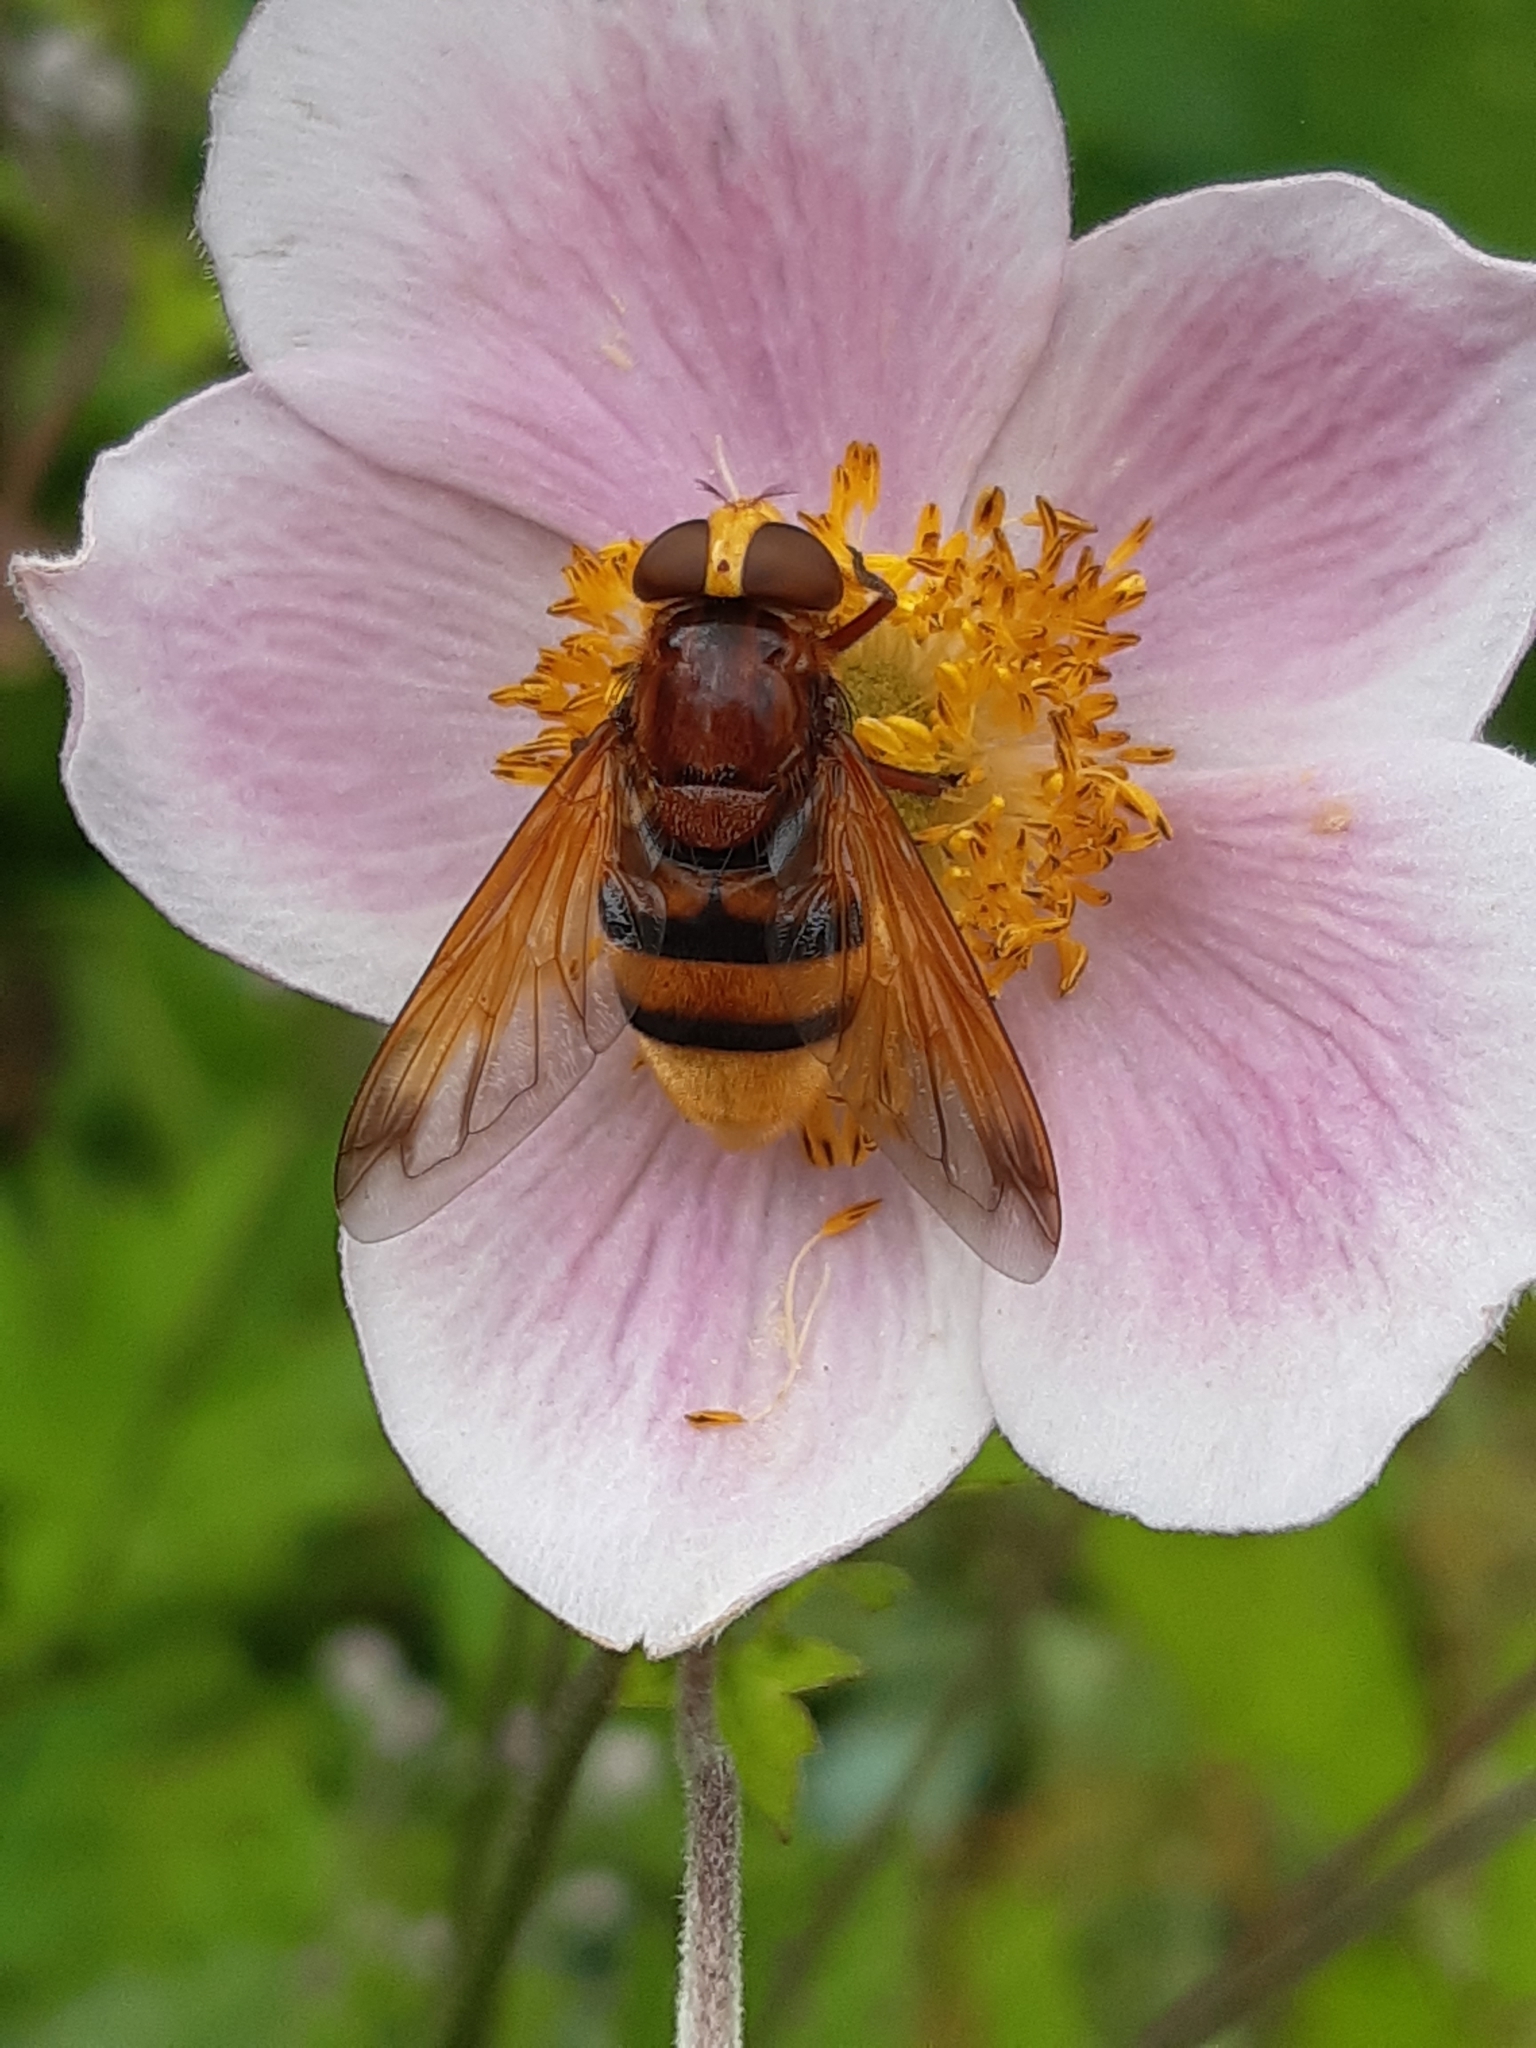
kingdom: Animalia
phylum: Arthropoda
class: Insecta
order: Diptera
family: Syrphidae
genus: Volucella
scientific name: Volucella zonaria
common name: Hornet hoverfly
